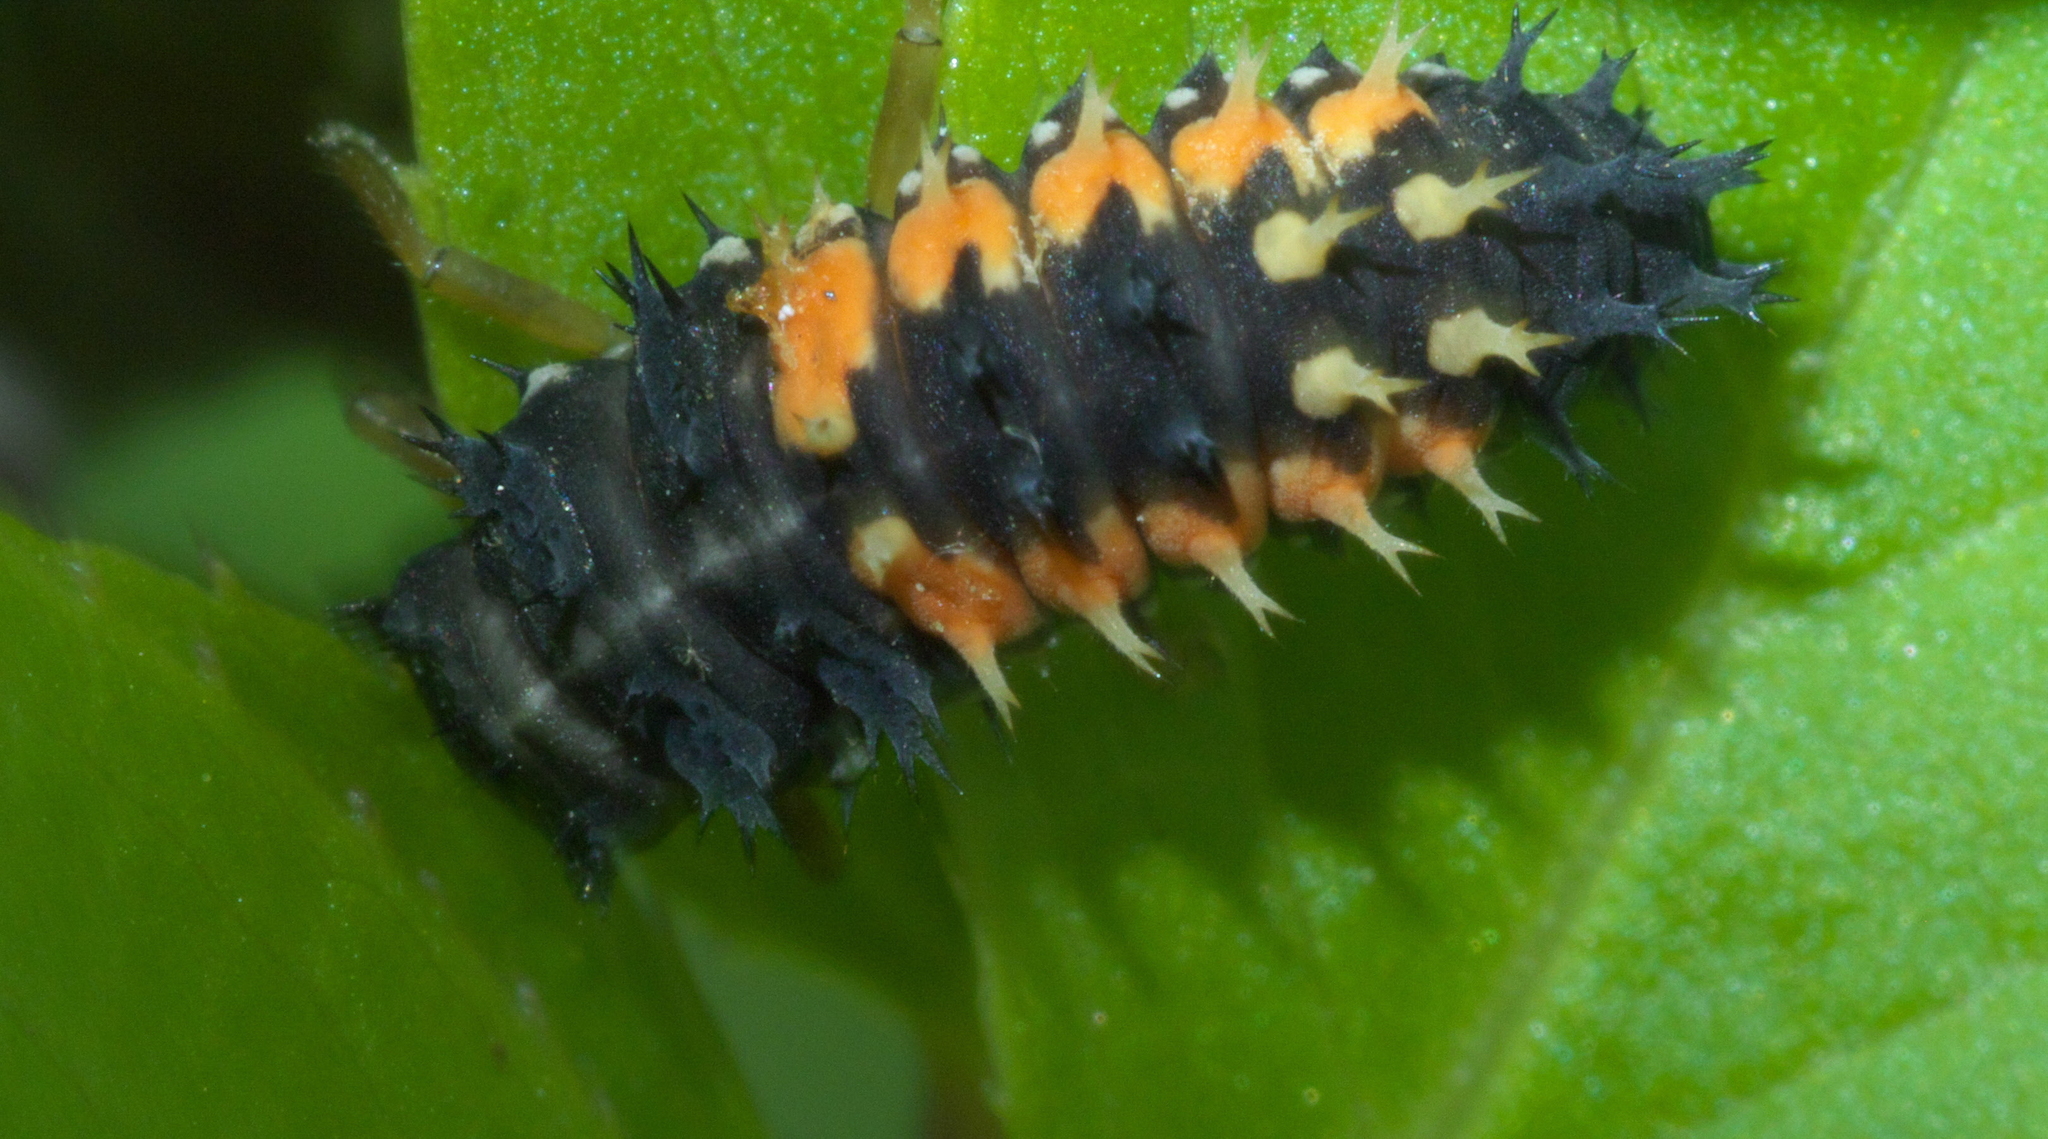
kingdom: Animalia
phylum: Arthropoda
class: Insecta
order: Coleoptera
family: Coccinellidae
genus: Harmonia
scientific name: Harmonia axyridis
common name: Harlequin ladybird
